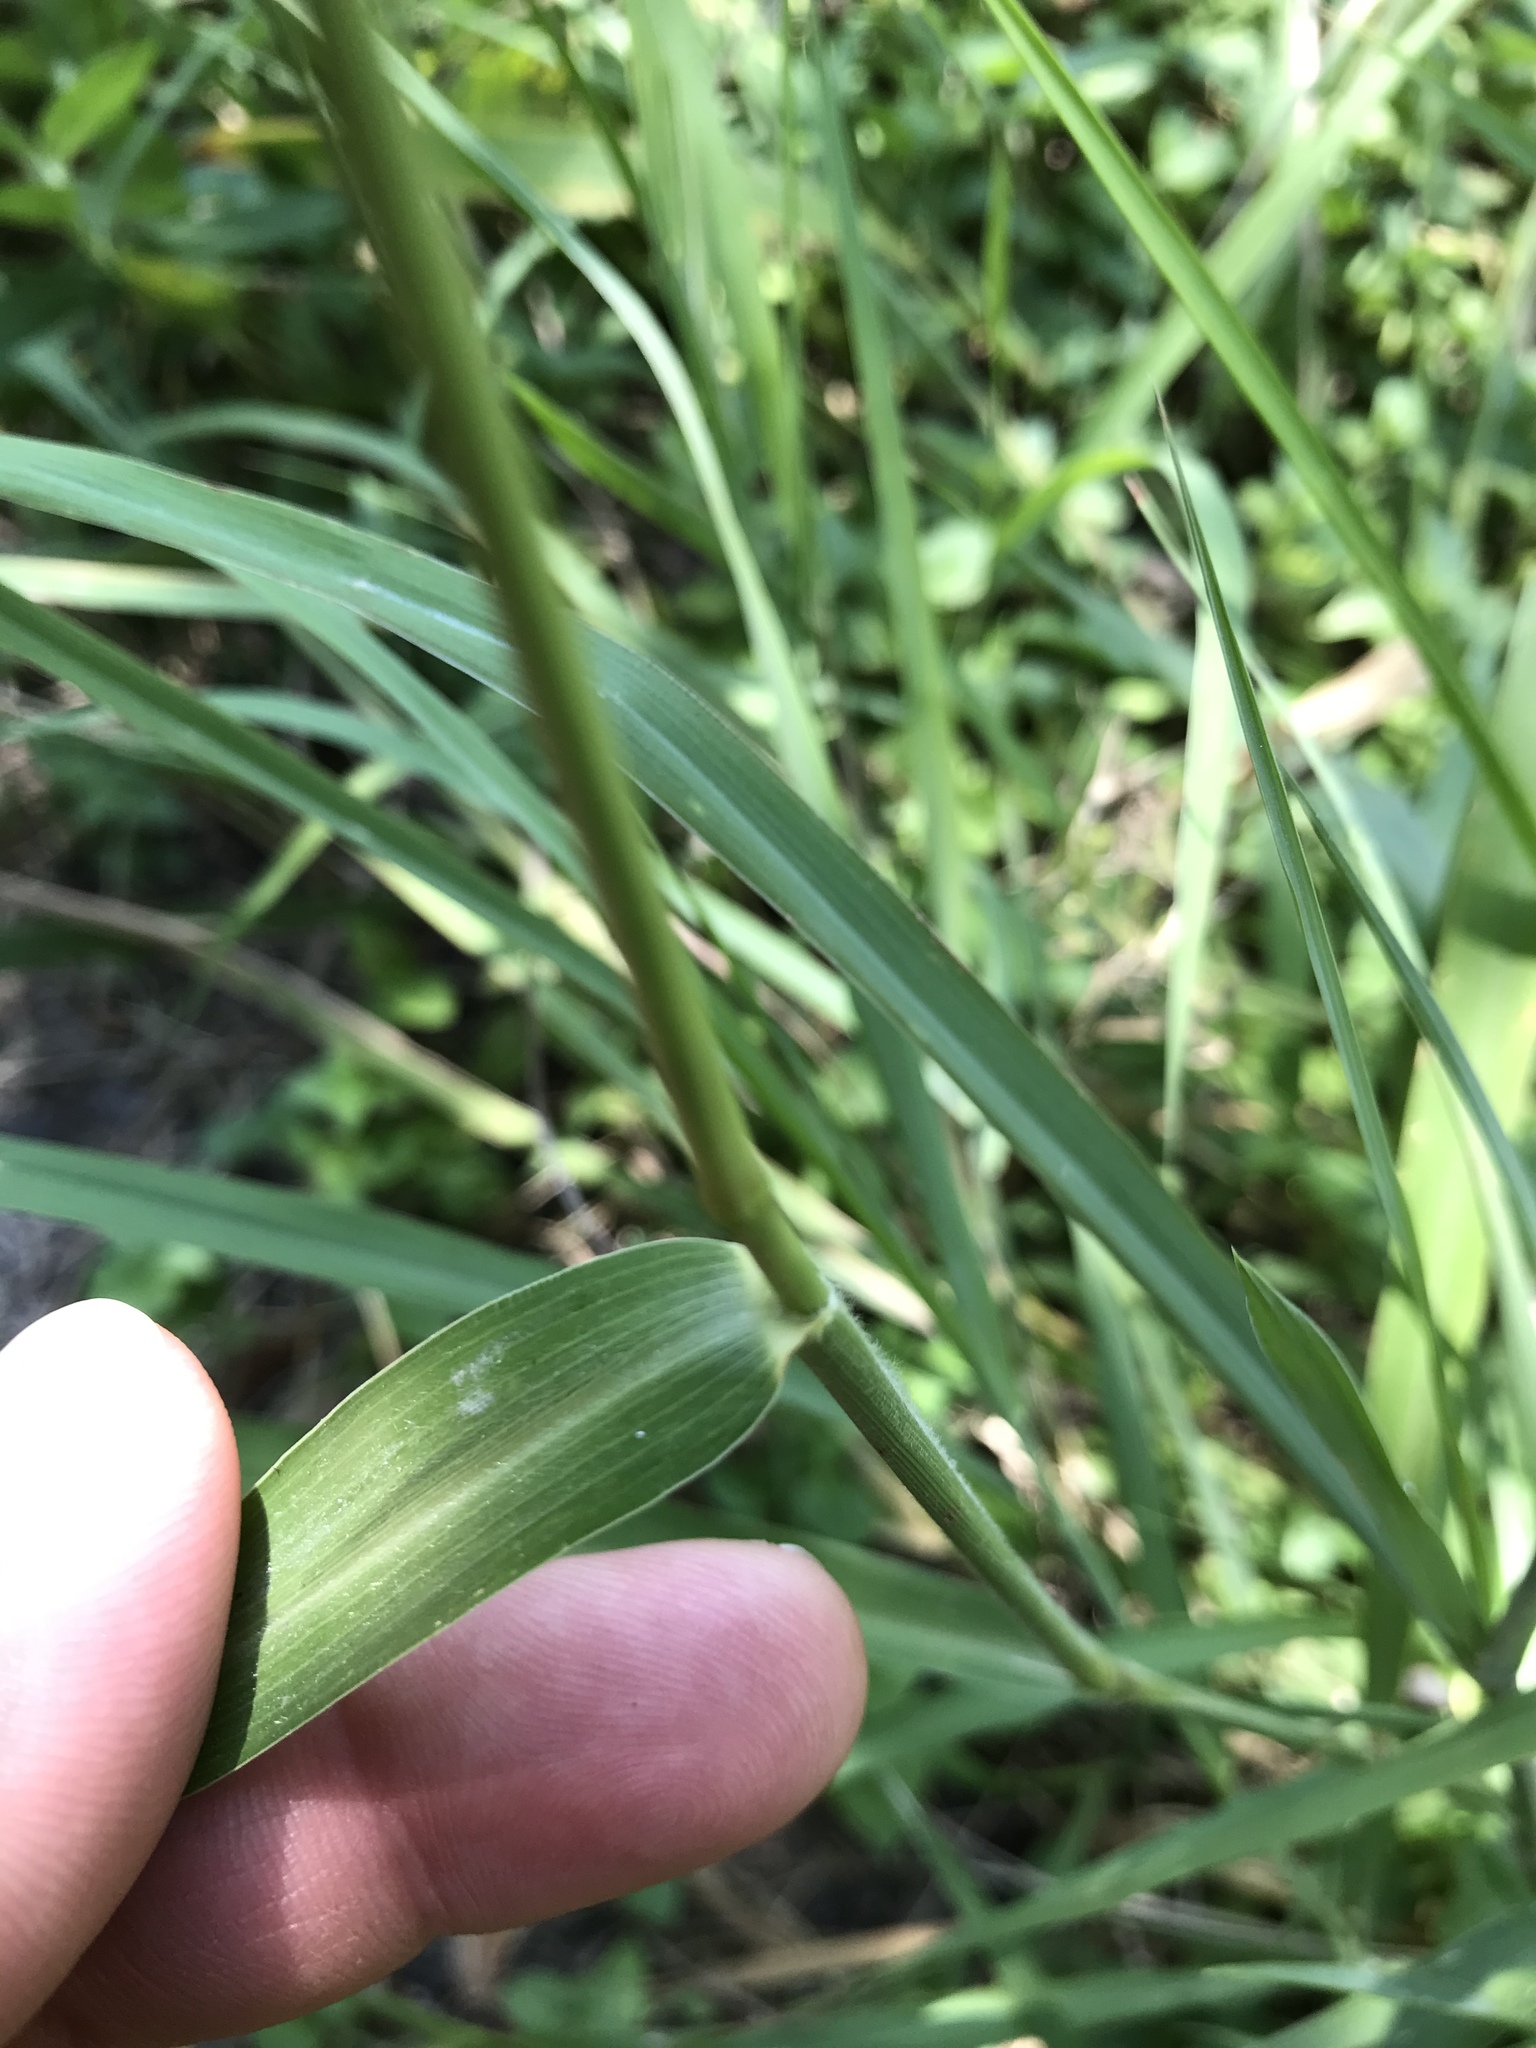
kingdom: Plantae
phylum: Tracheophyta
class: Liliopsida
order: Poales
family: Poaceae
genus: Setaria
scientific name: Setaria scheelei
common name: Southwestern bristle grass
